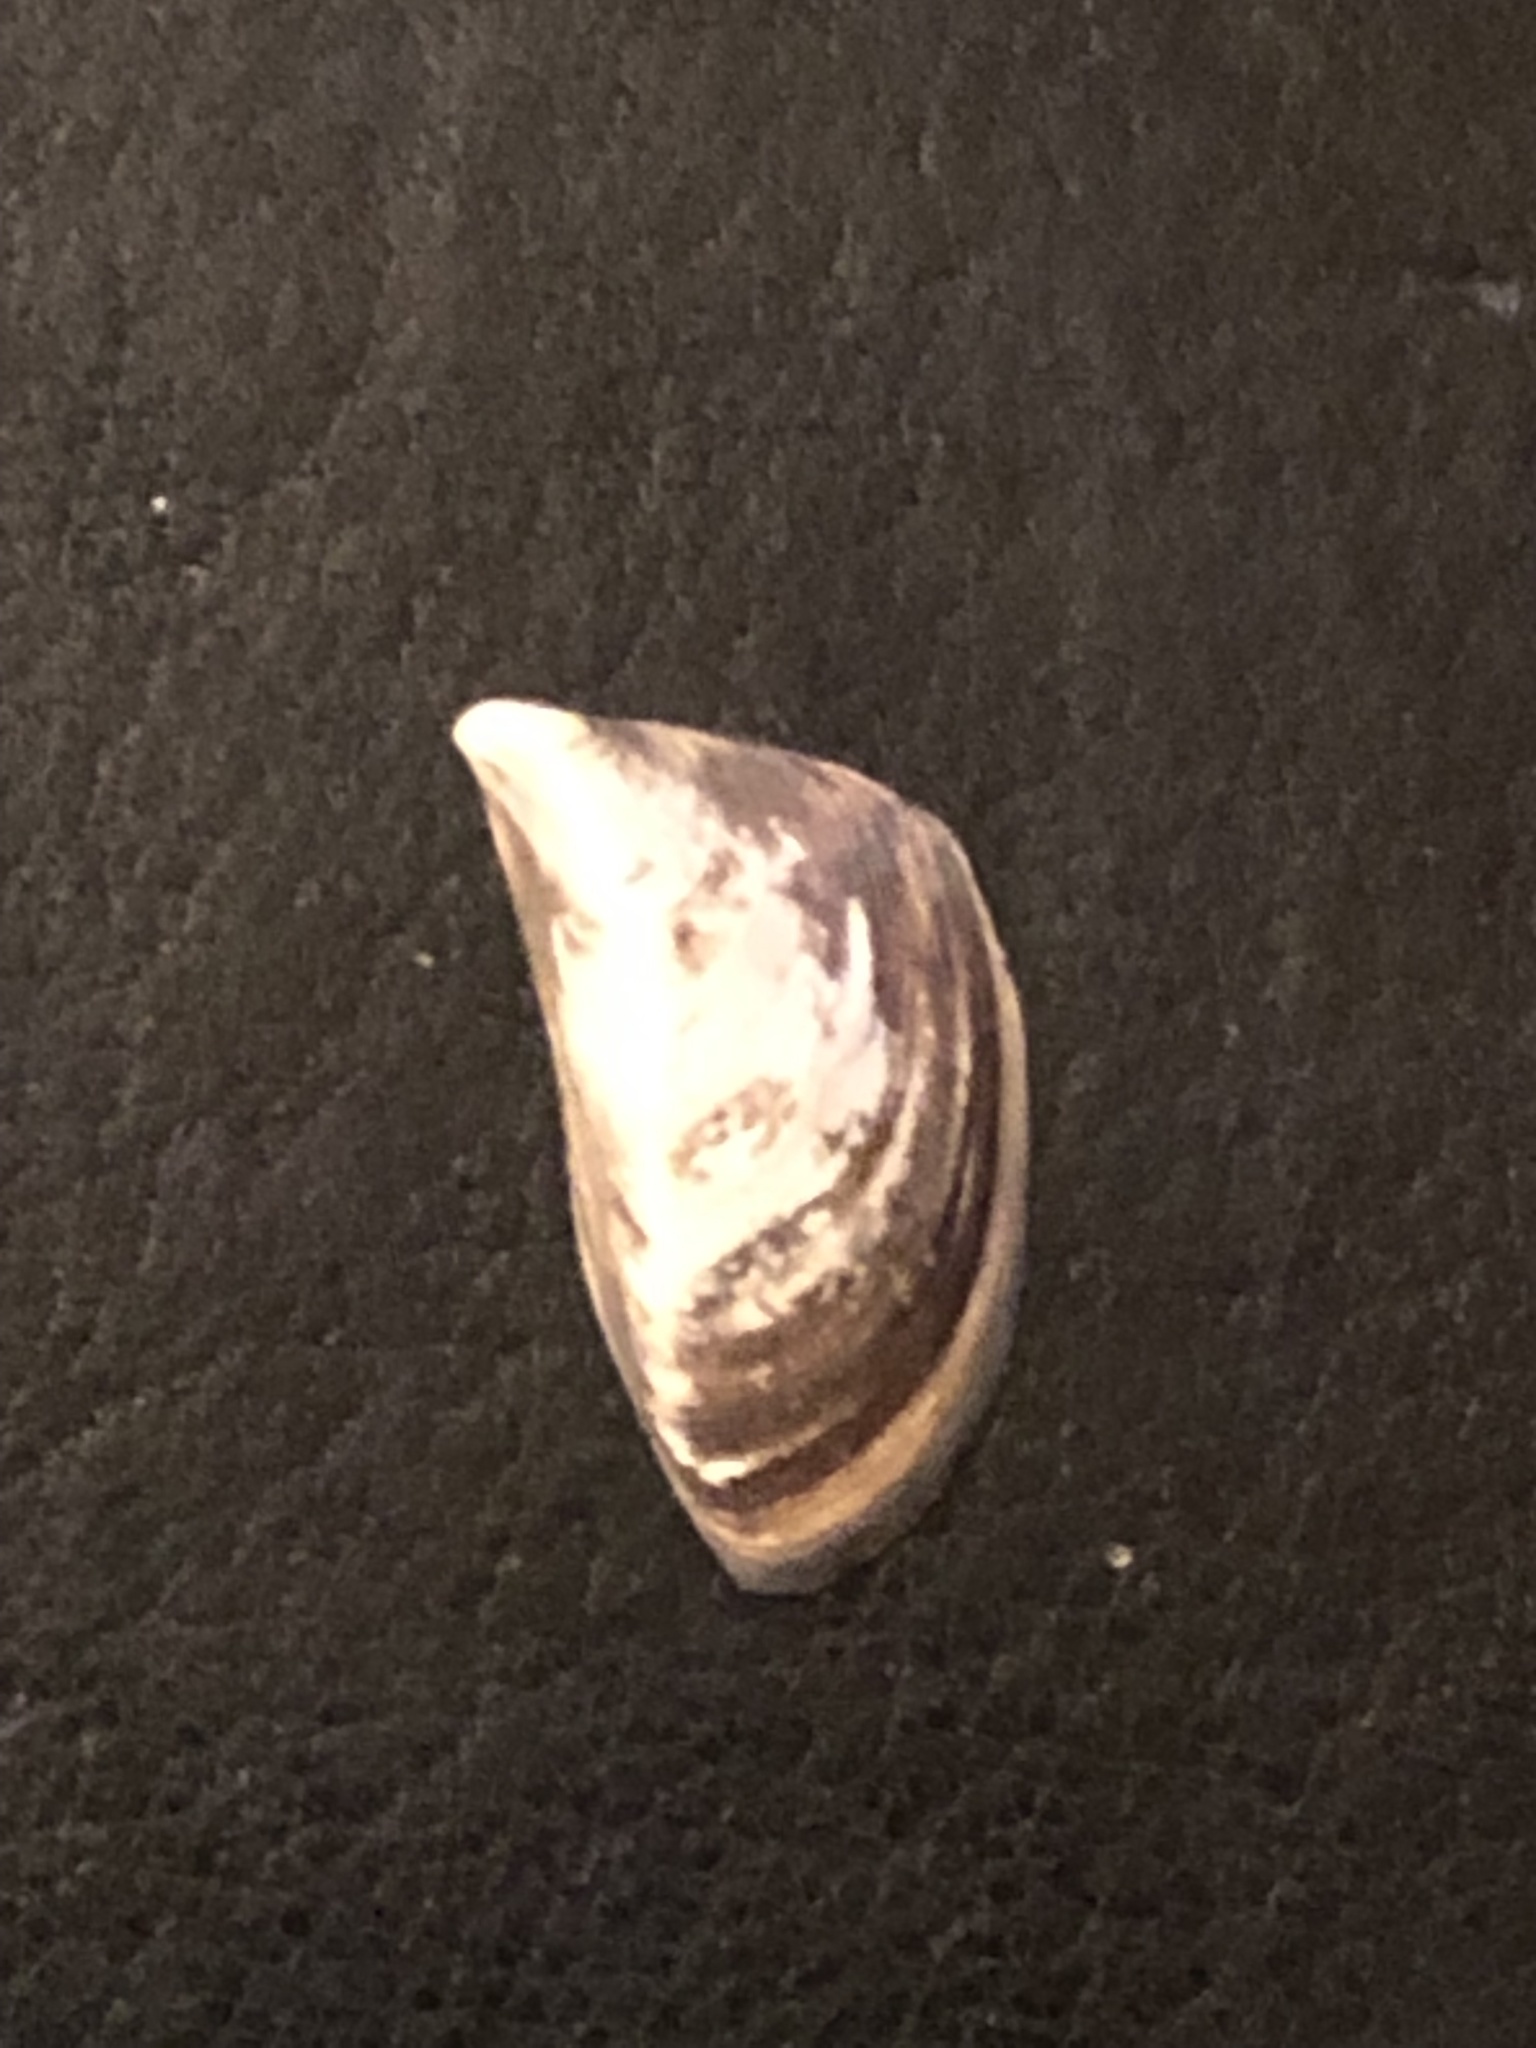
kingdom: Animalia
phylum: Mollusca
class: Bivalvia
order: Myida
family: Dreissenidae
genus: Dreissena
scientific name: Dreissena polymorpha
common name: Zebra mussel
